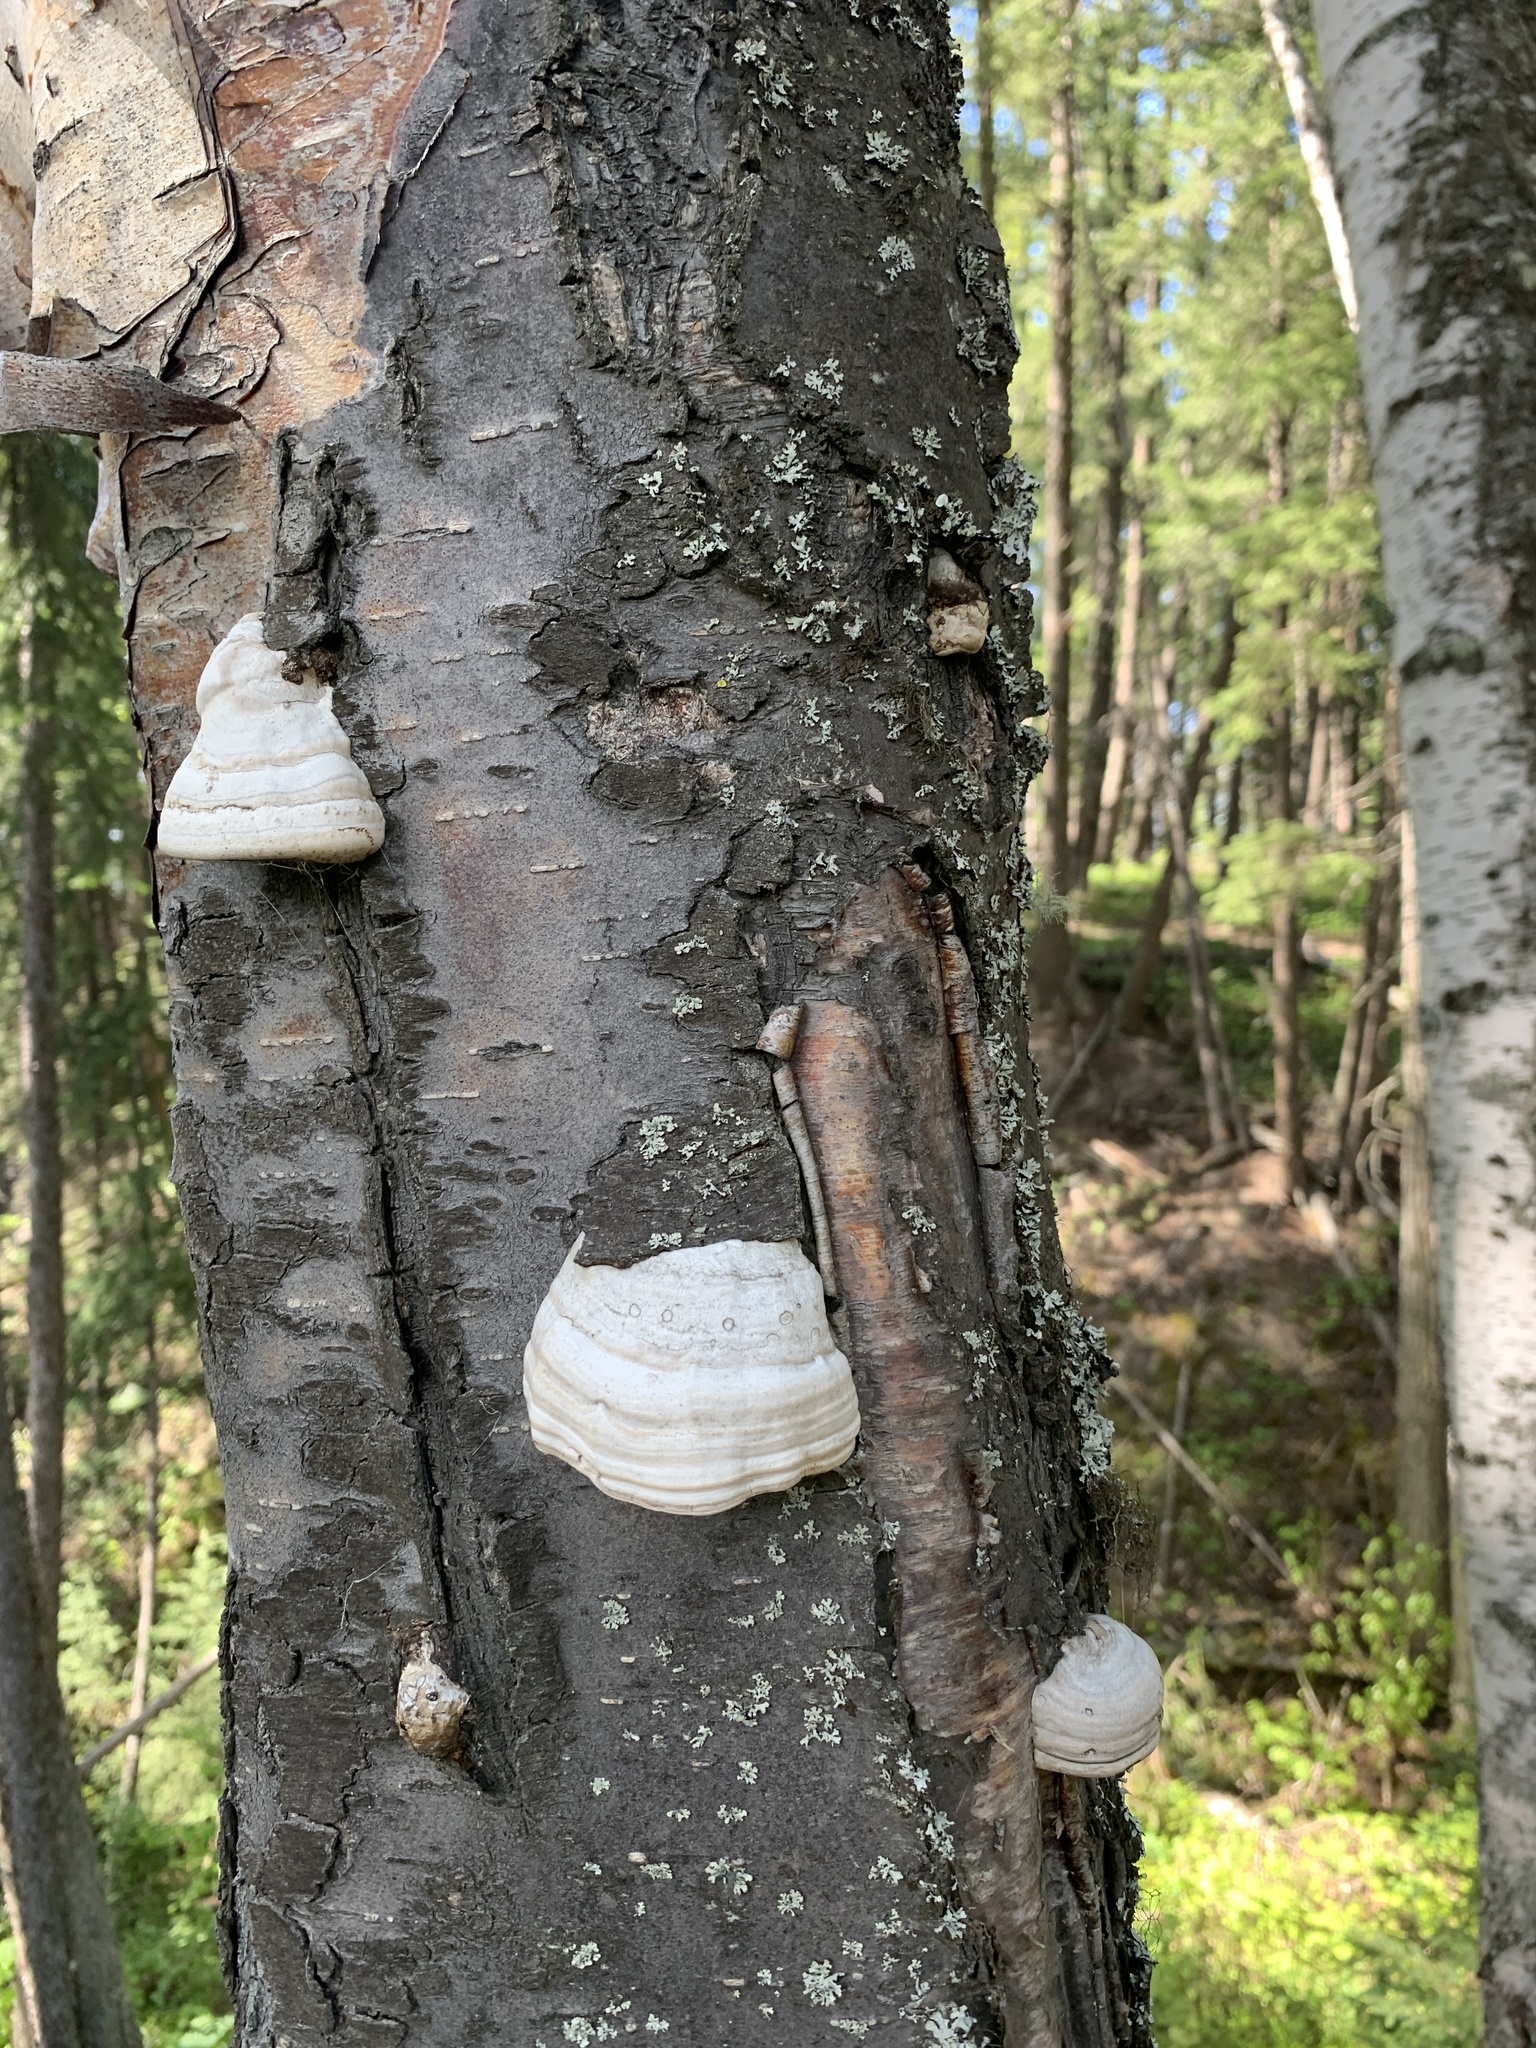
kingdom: Fungi
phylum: Basidiomycota
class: Agaricomycetes
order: Polyporales
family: Polyporaceae
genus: Fomes
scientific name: Fomes fomentarius
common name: Hoof fungus
